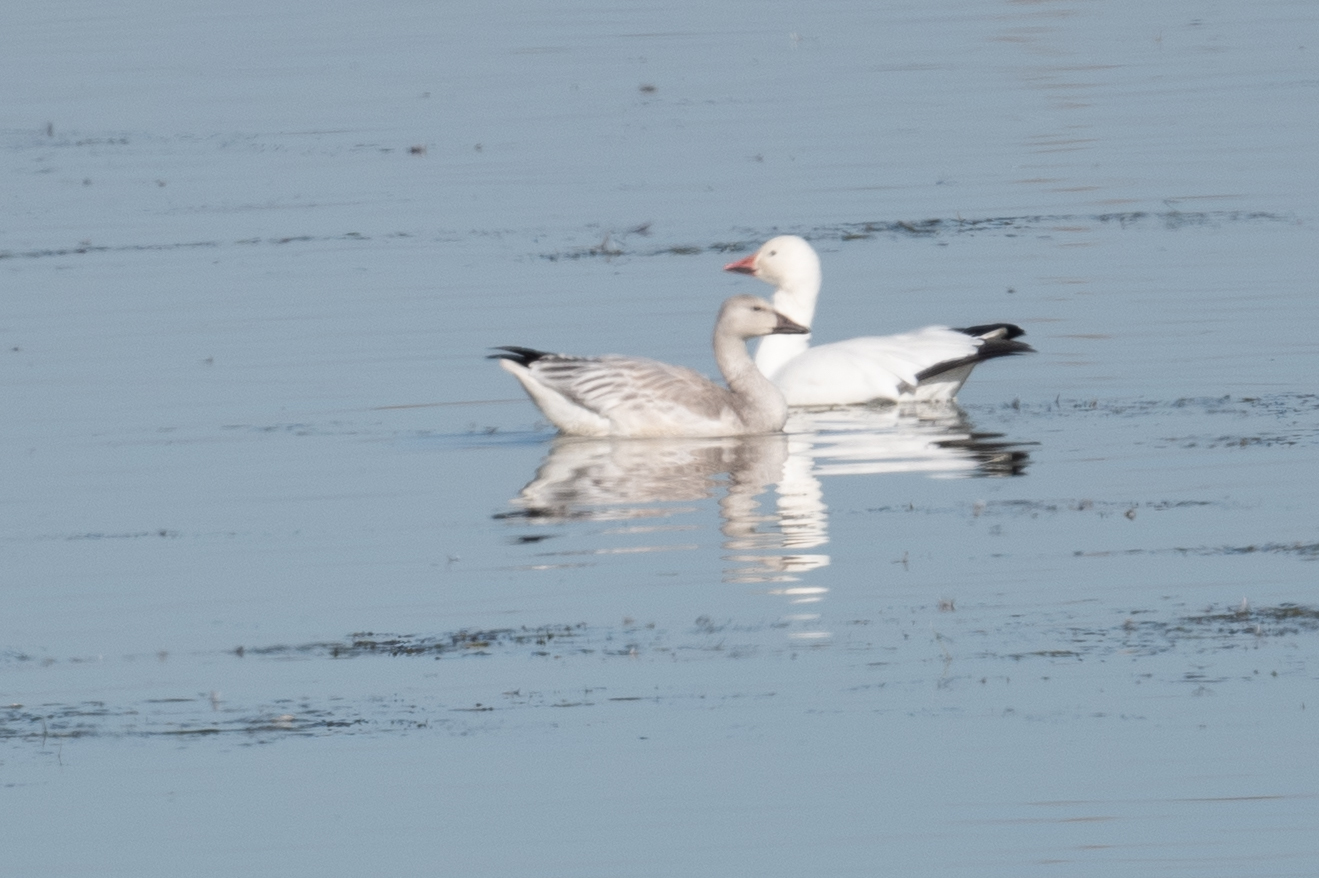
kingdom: Animalia
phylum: Chordata
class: Aves
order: Anseriformes
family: Anatidae
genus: Anser
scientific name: Anser caerulescens
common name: Snow goose
